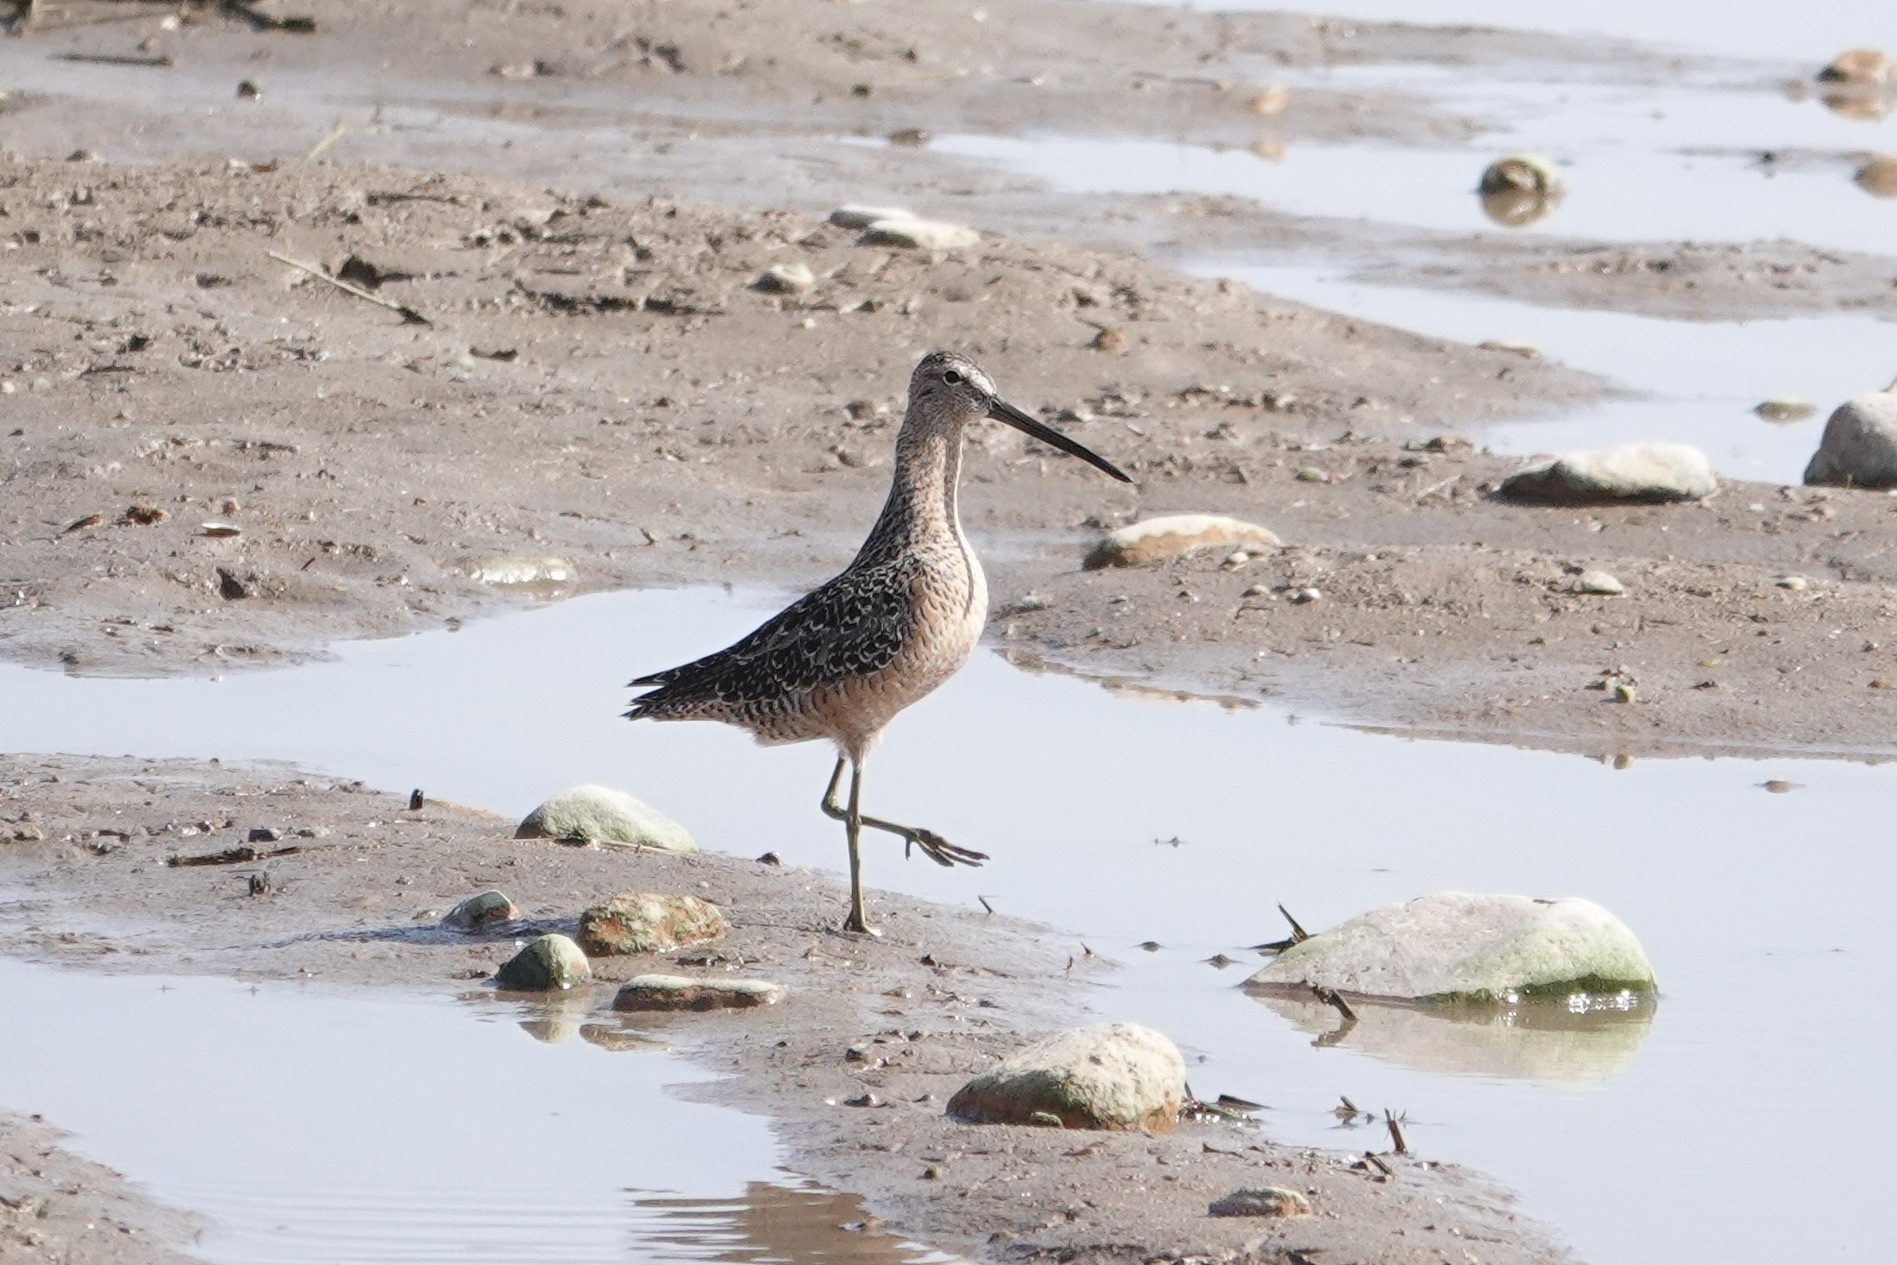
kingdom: Animalia
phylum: Chordata
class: Aves
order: Charadriiformes
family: Scolopacidae
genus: Limnodromus
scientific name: Limnodromus scolopaceus
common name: Long-billed dowitcher
